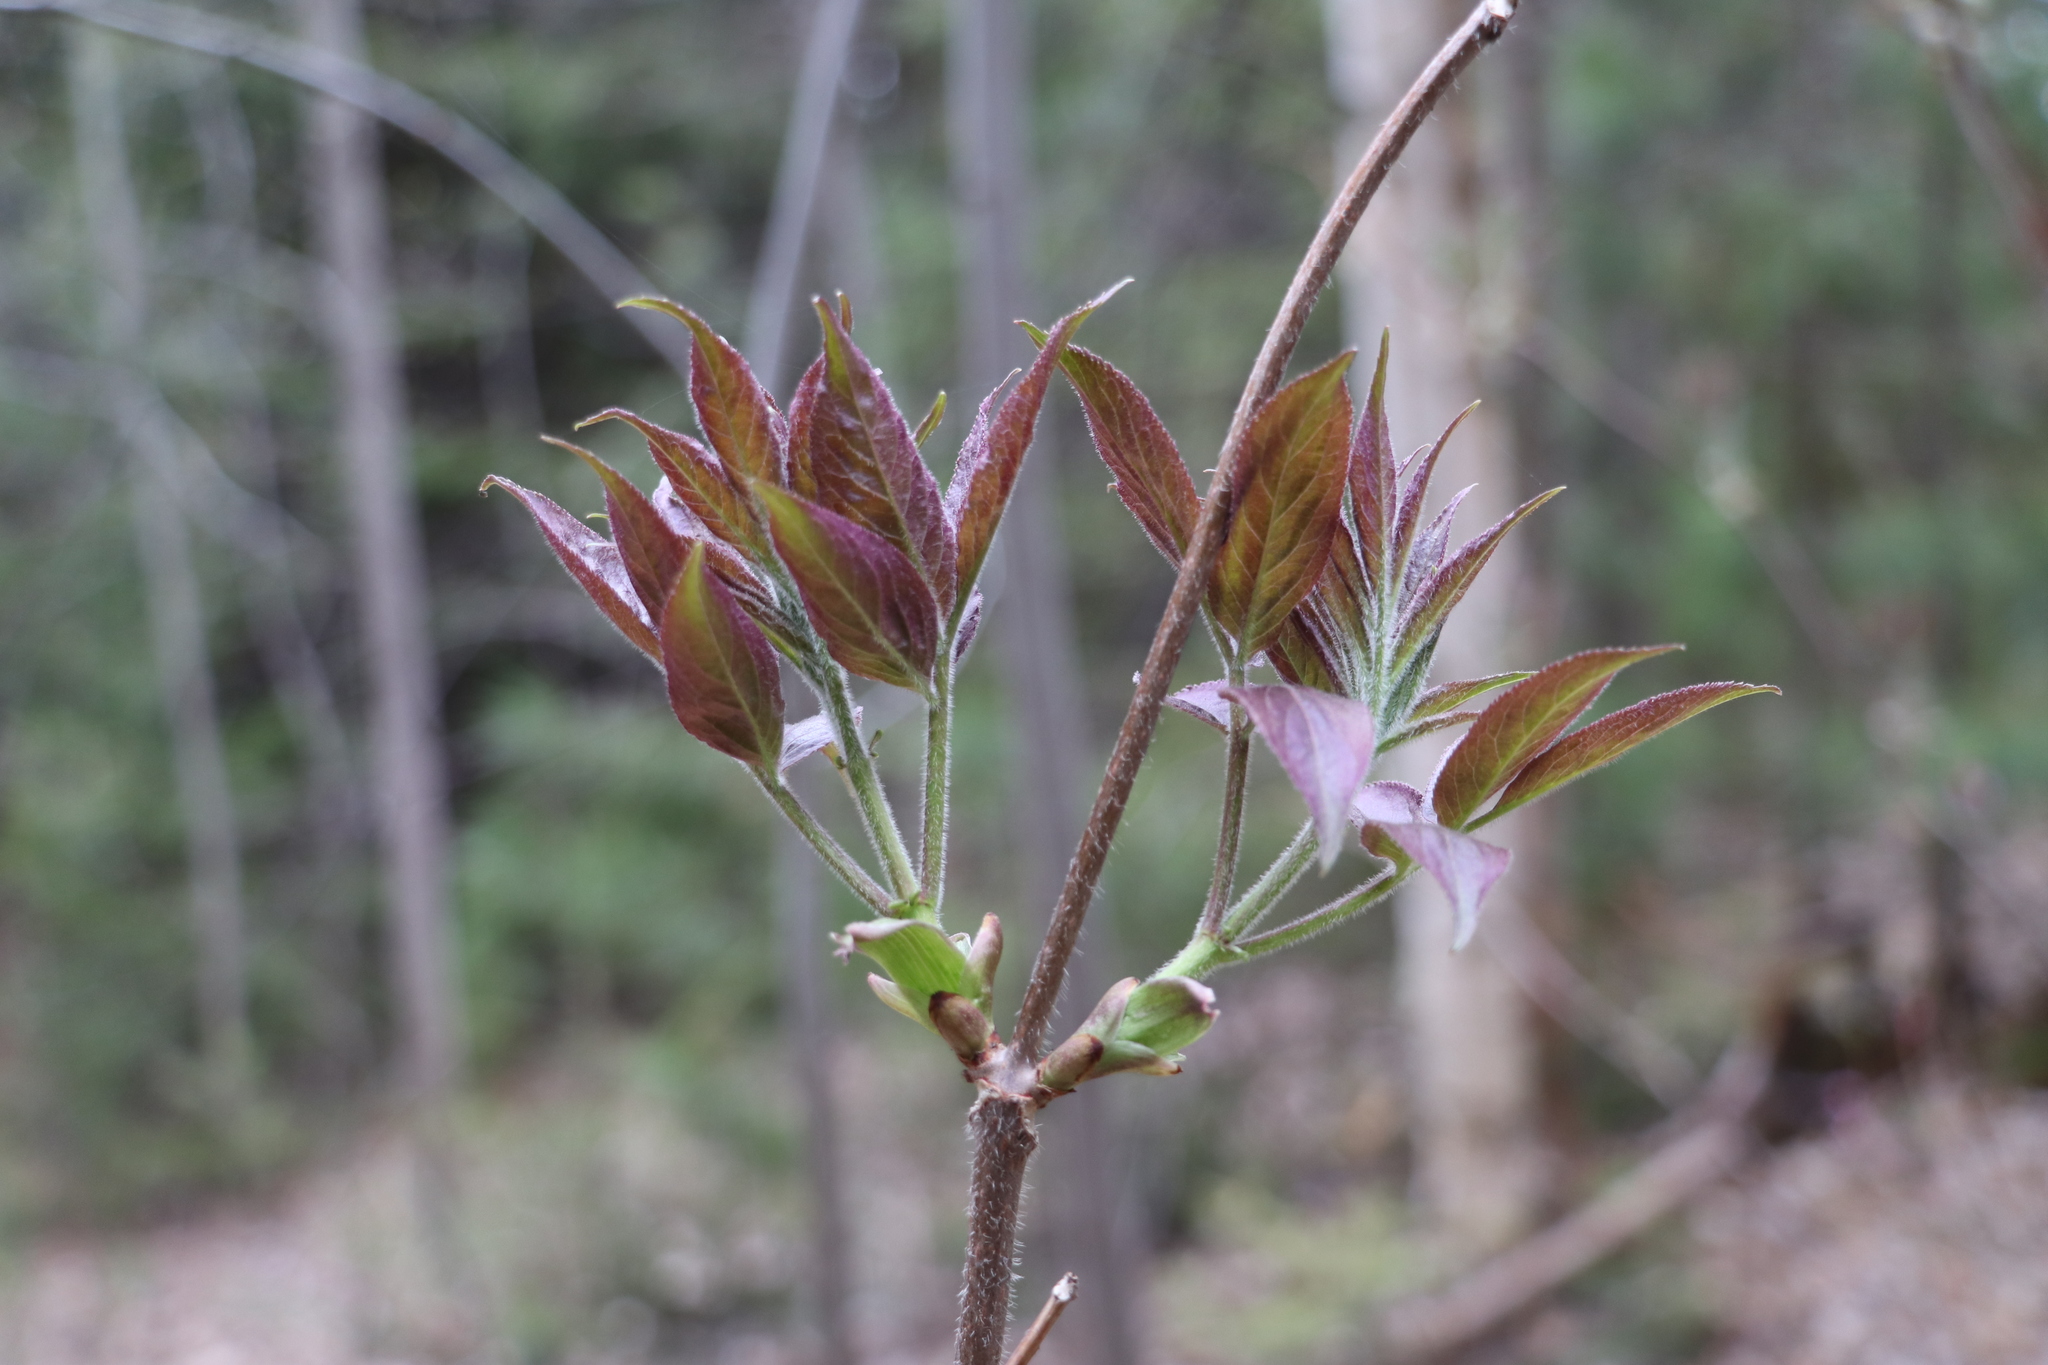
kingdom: Plantae
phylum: Tracheophyta
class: Magnoliopsida
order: Dipsacales
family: Viburnaceae
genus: Sambucus
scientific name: Sambucus sibirica
